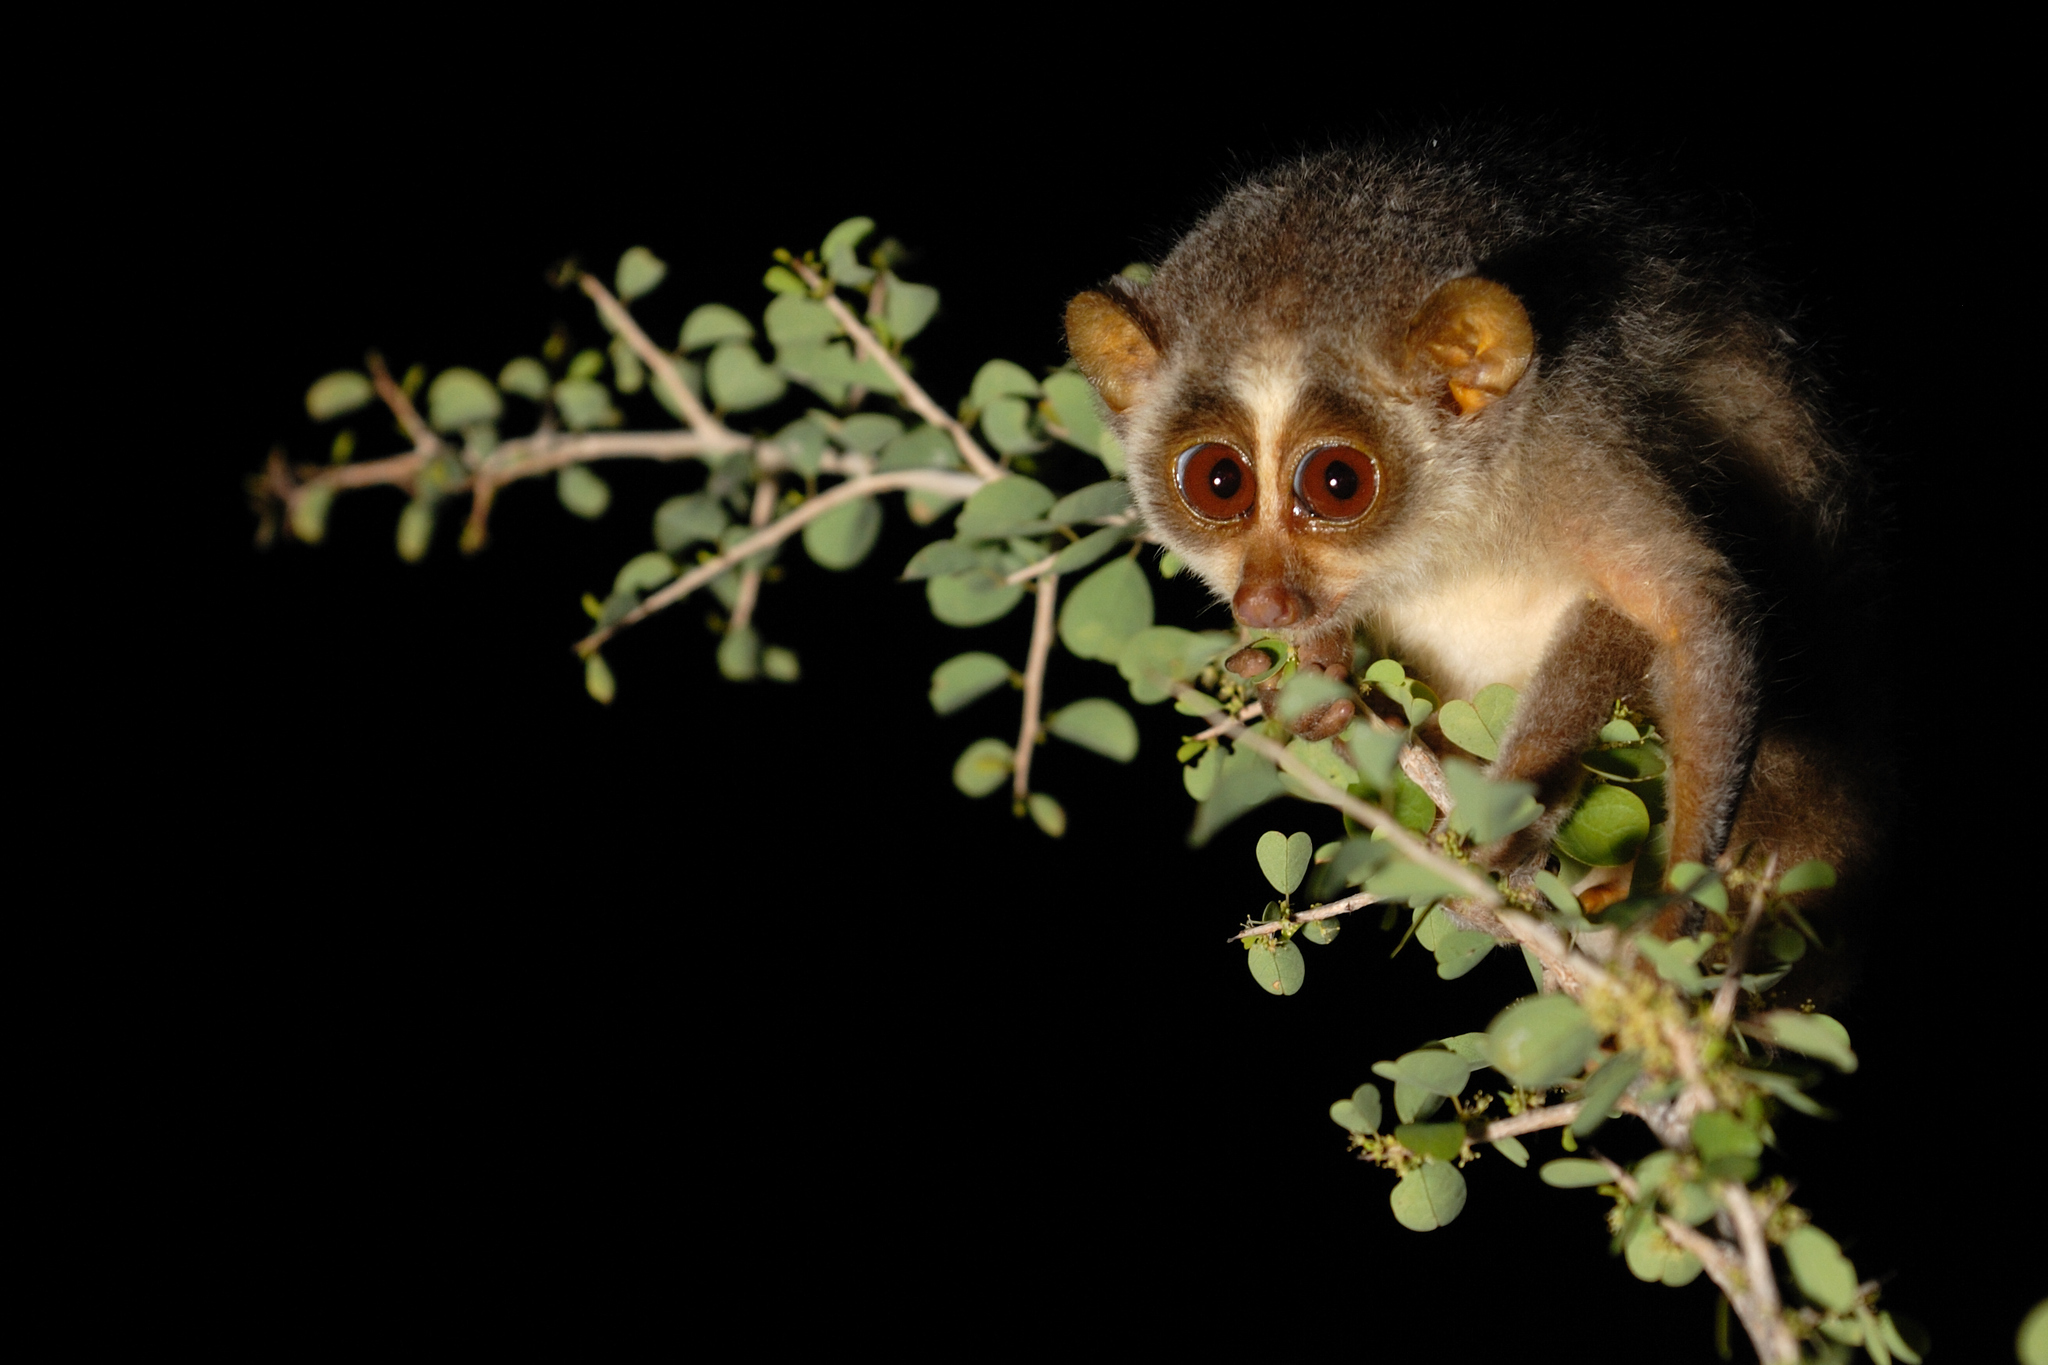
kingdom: Animalia
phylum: Chordata
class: Mammalia
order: Primates
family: Lorisidae
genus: Loris
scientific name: Loris lydekkerianus
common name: Gray slender loris
